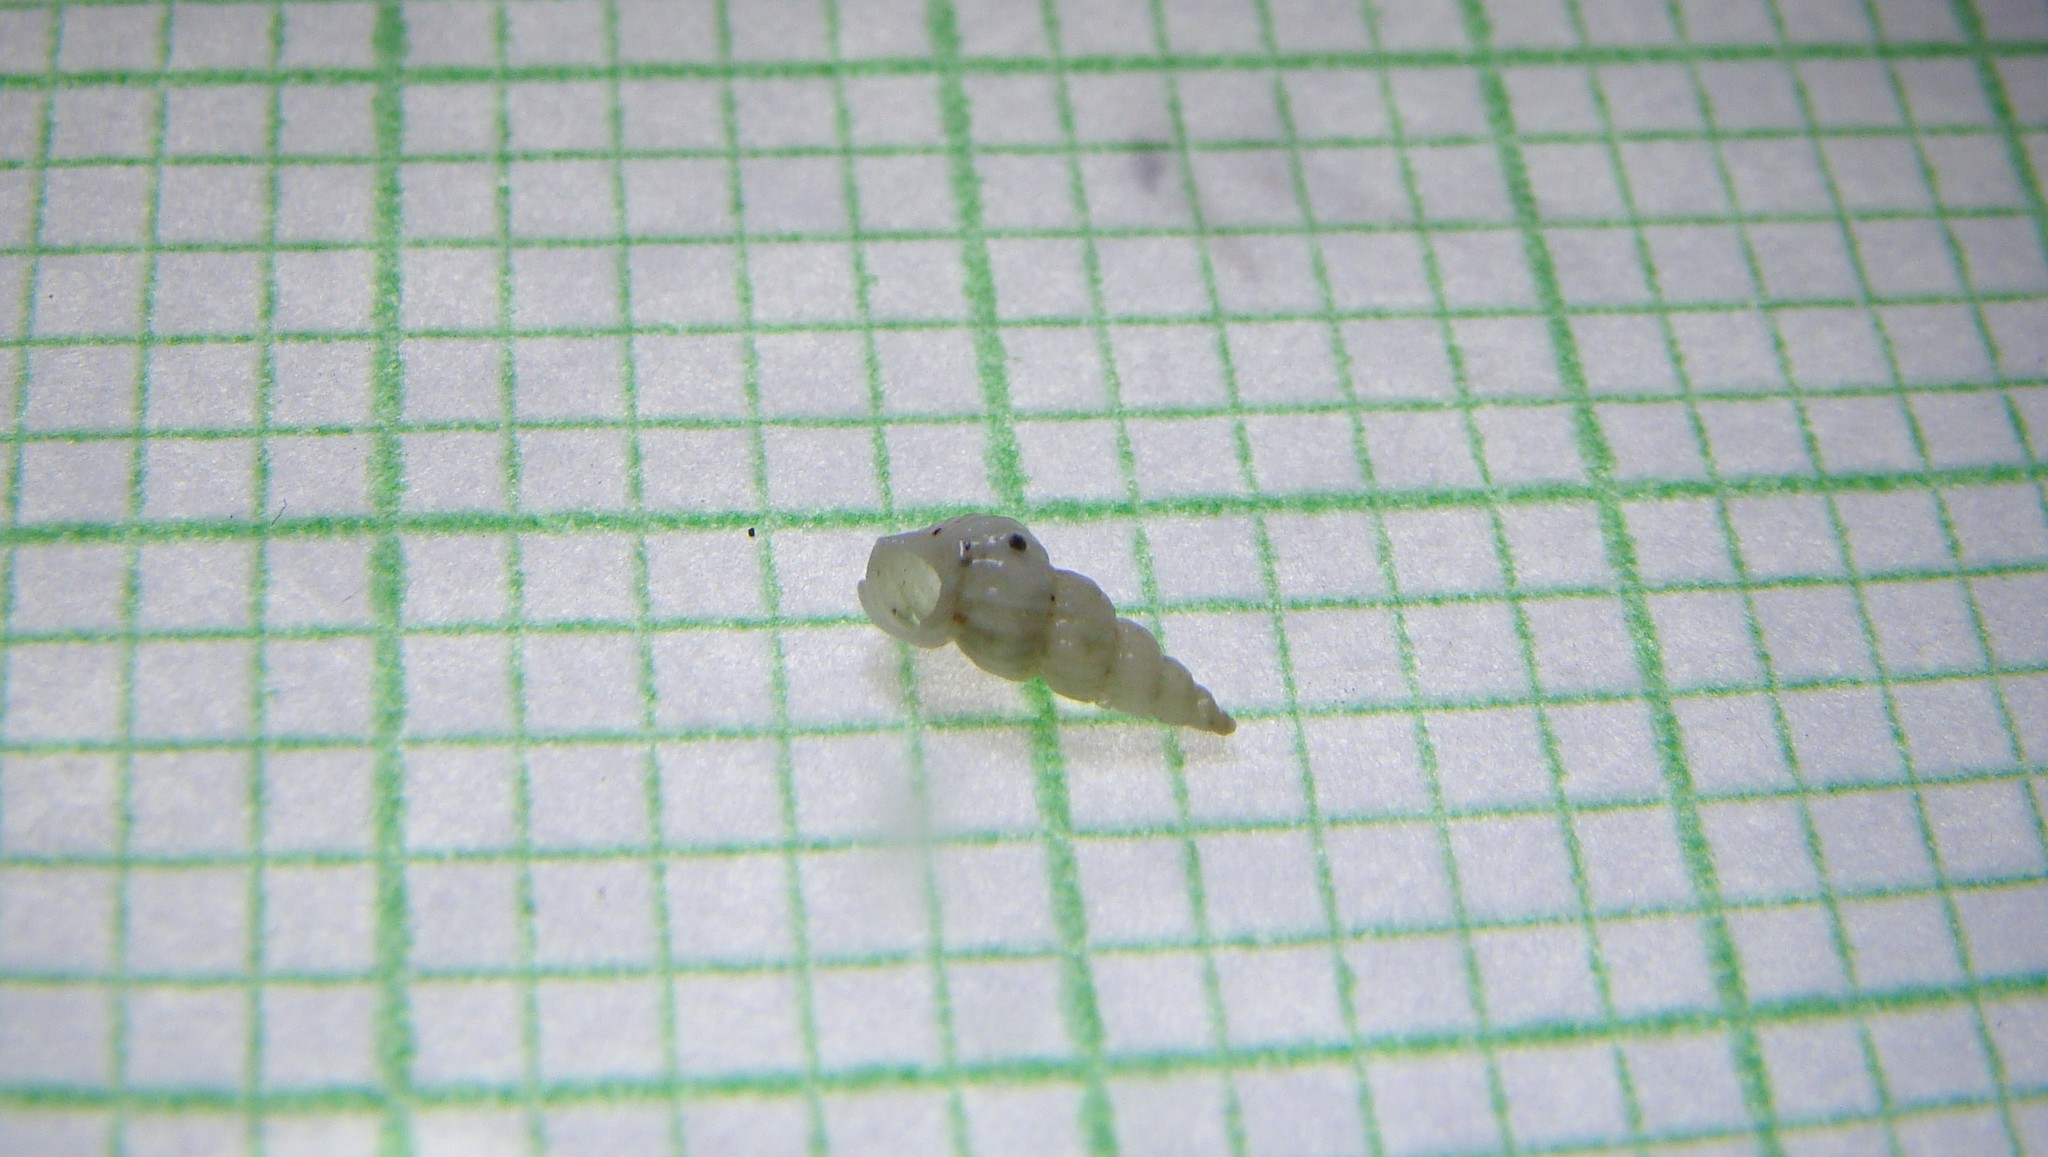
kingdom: Animalia
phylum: Mollusca
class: Gastropoda
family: Epitoniidae
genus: Epitonium
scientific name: Epitonium jukesianum
